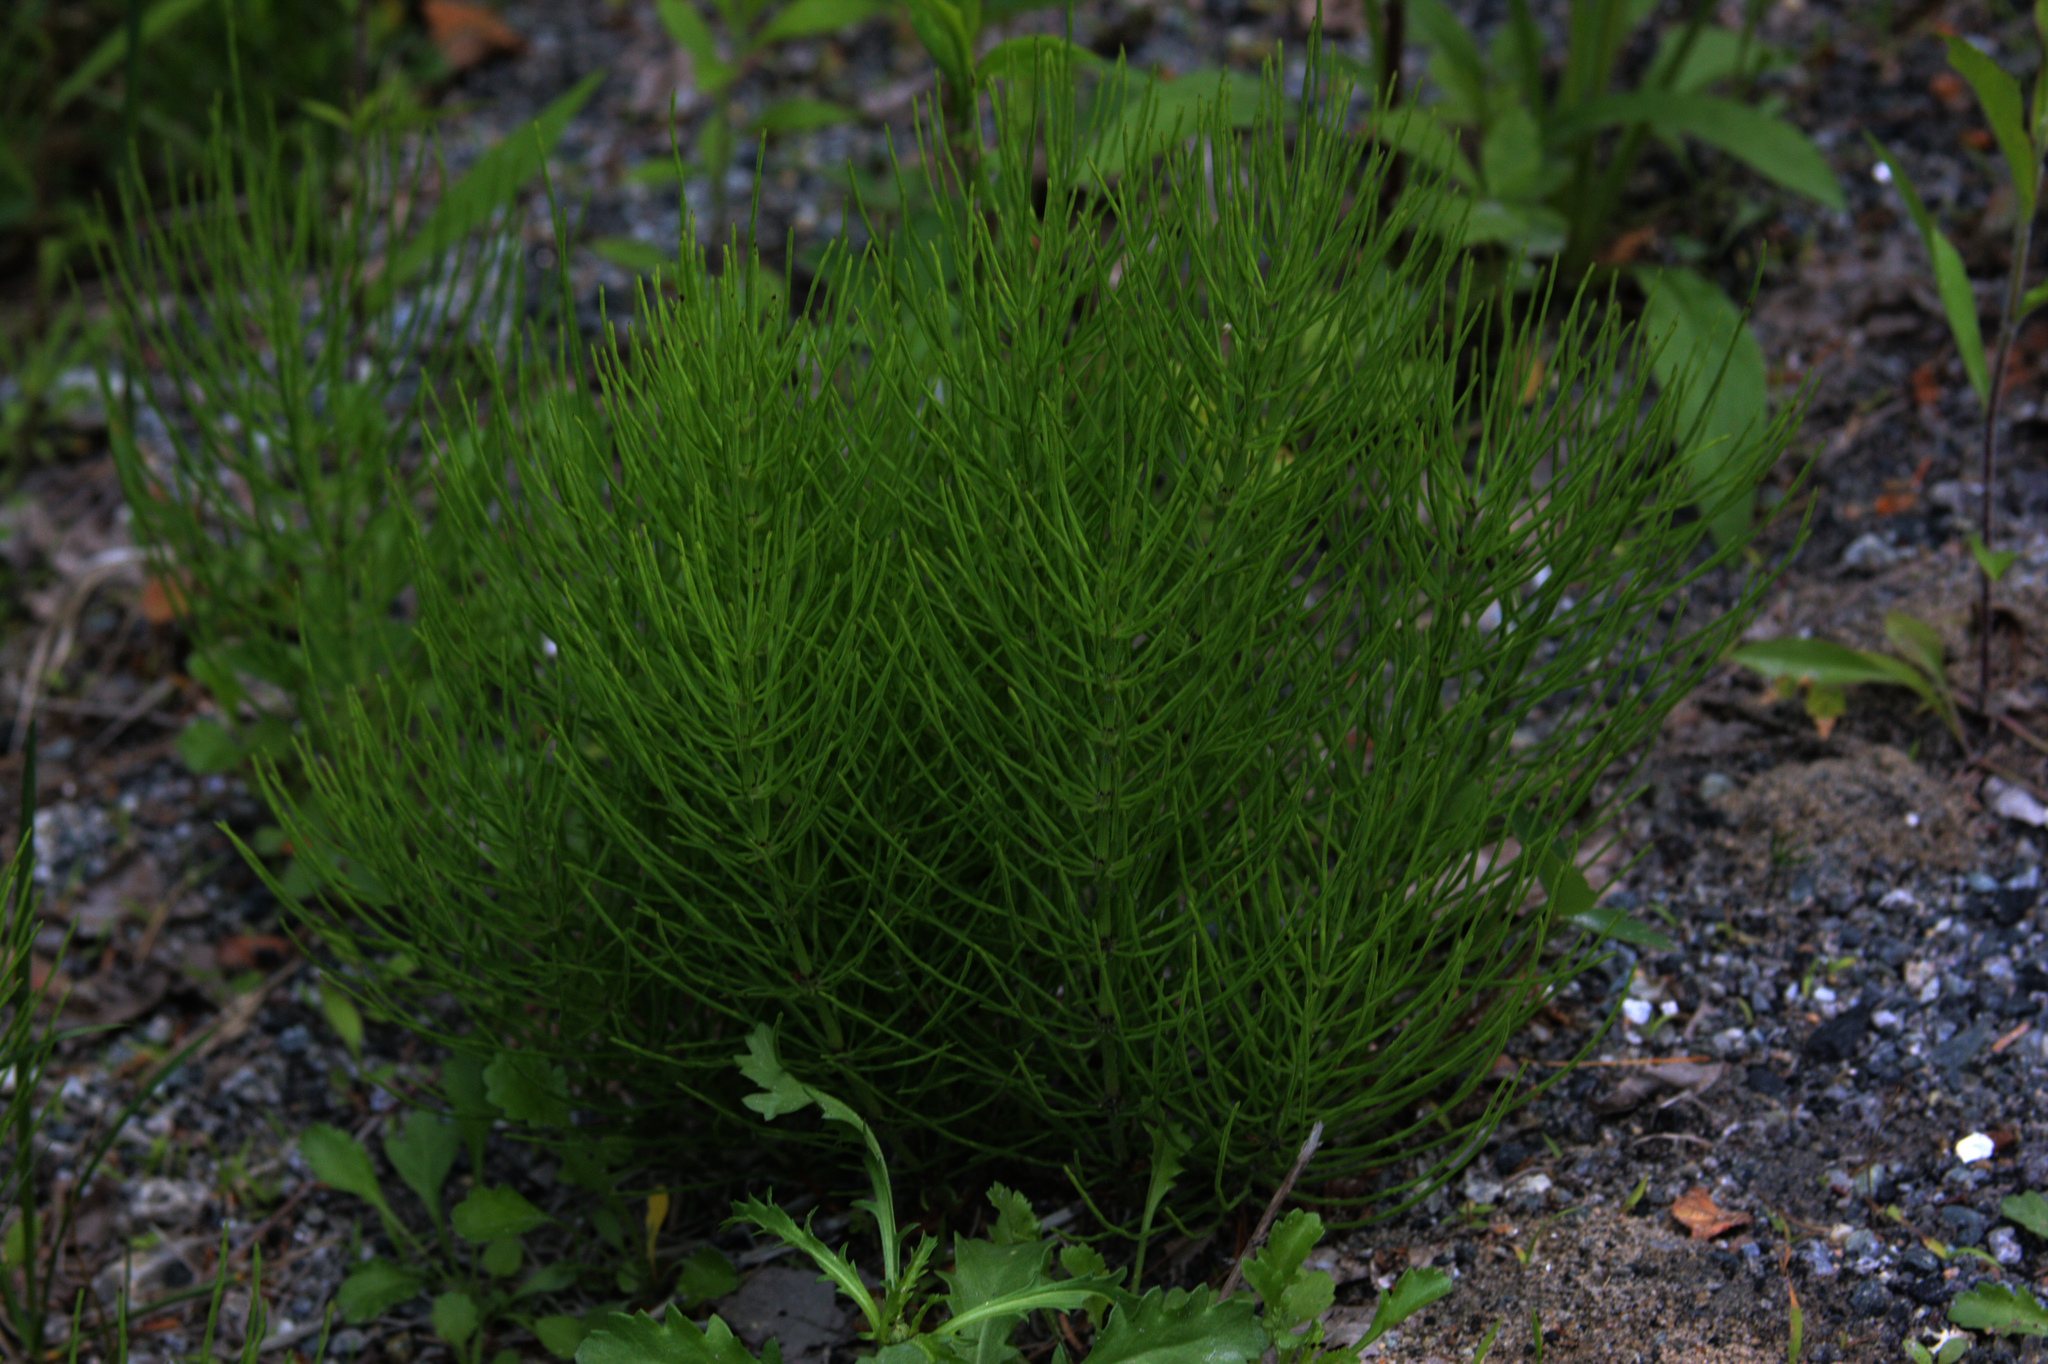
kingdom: Plantae
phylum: Tracheophyta
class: Polypodiopsida
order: Equisetales
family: Equisetaceae
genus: Equisetum
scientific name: Equisetum arvense
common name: Field horsetail
